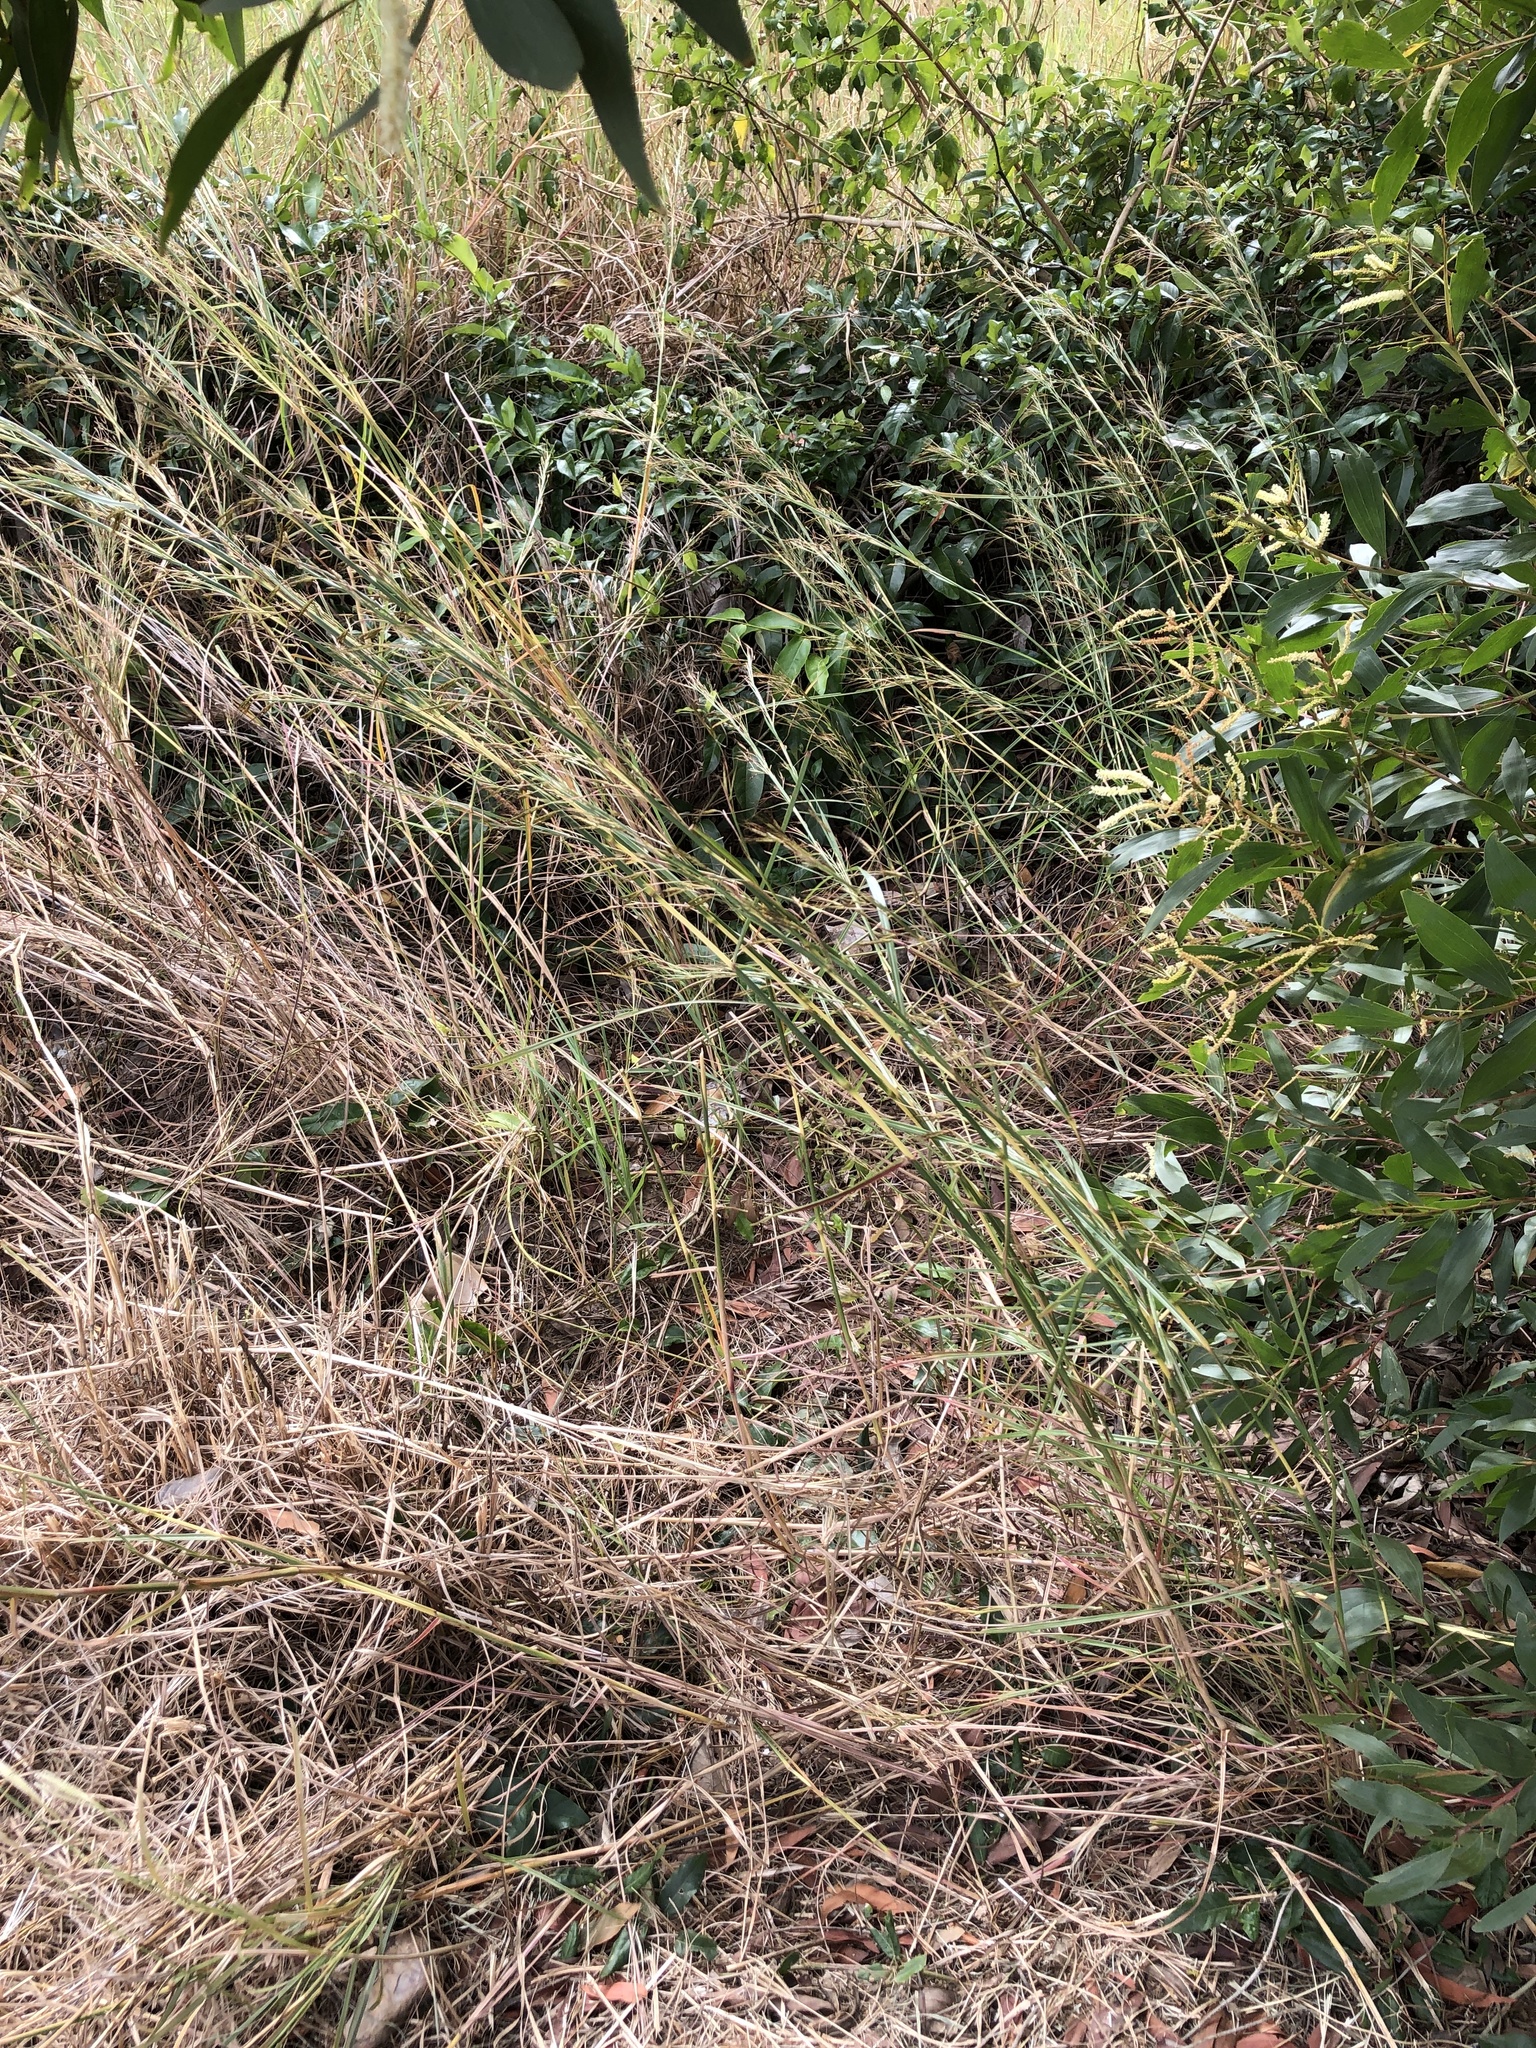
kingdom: Plantae
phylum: Tracheophyta
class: Liliopsida
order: Poales
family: Poaceae
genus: Hyparrhenia
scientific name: Hyparrhenia hirta
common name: Thatching grass
